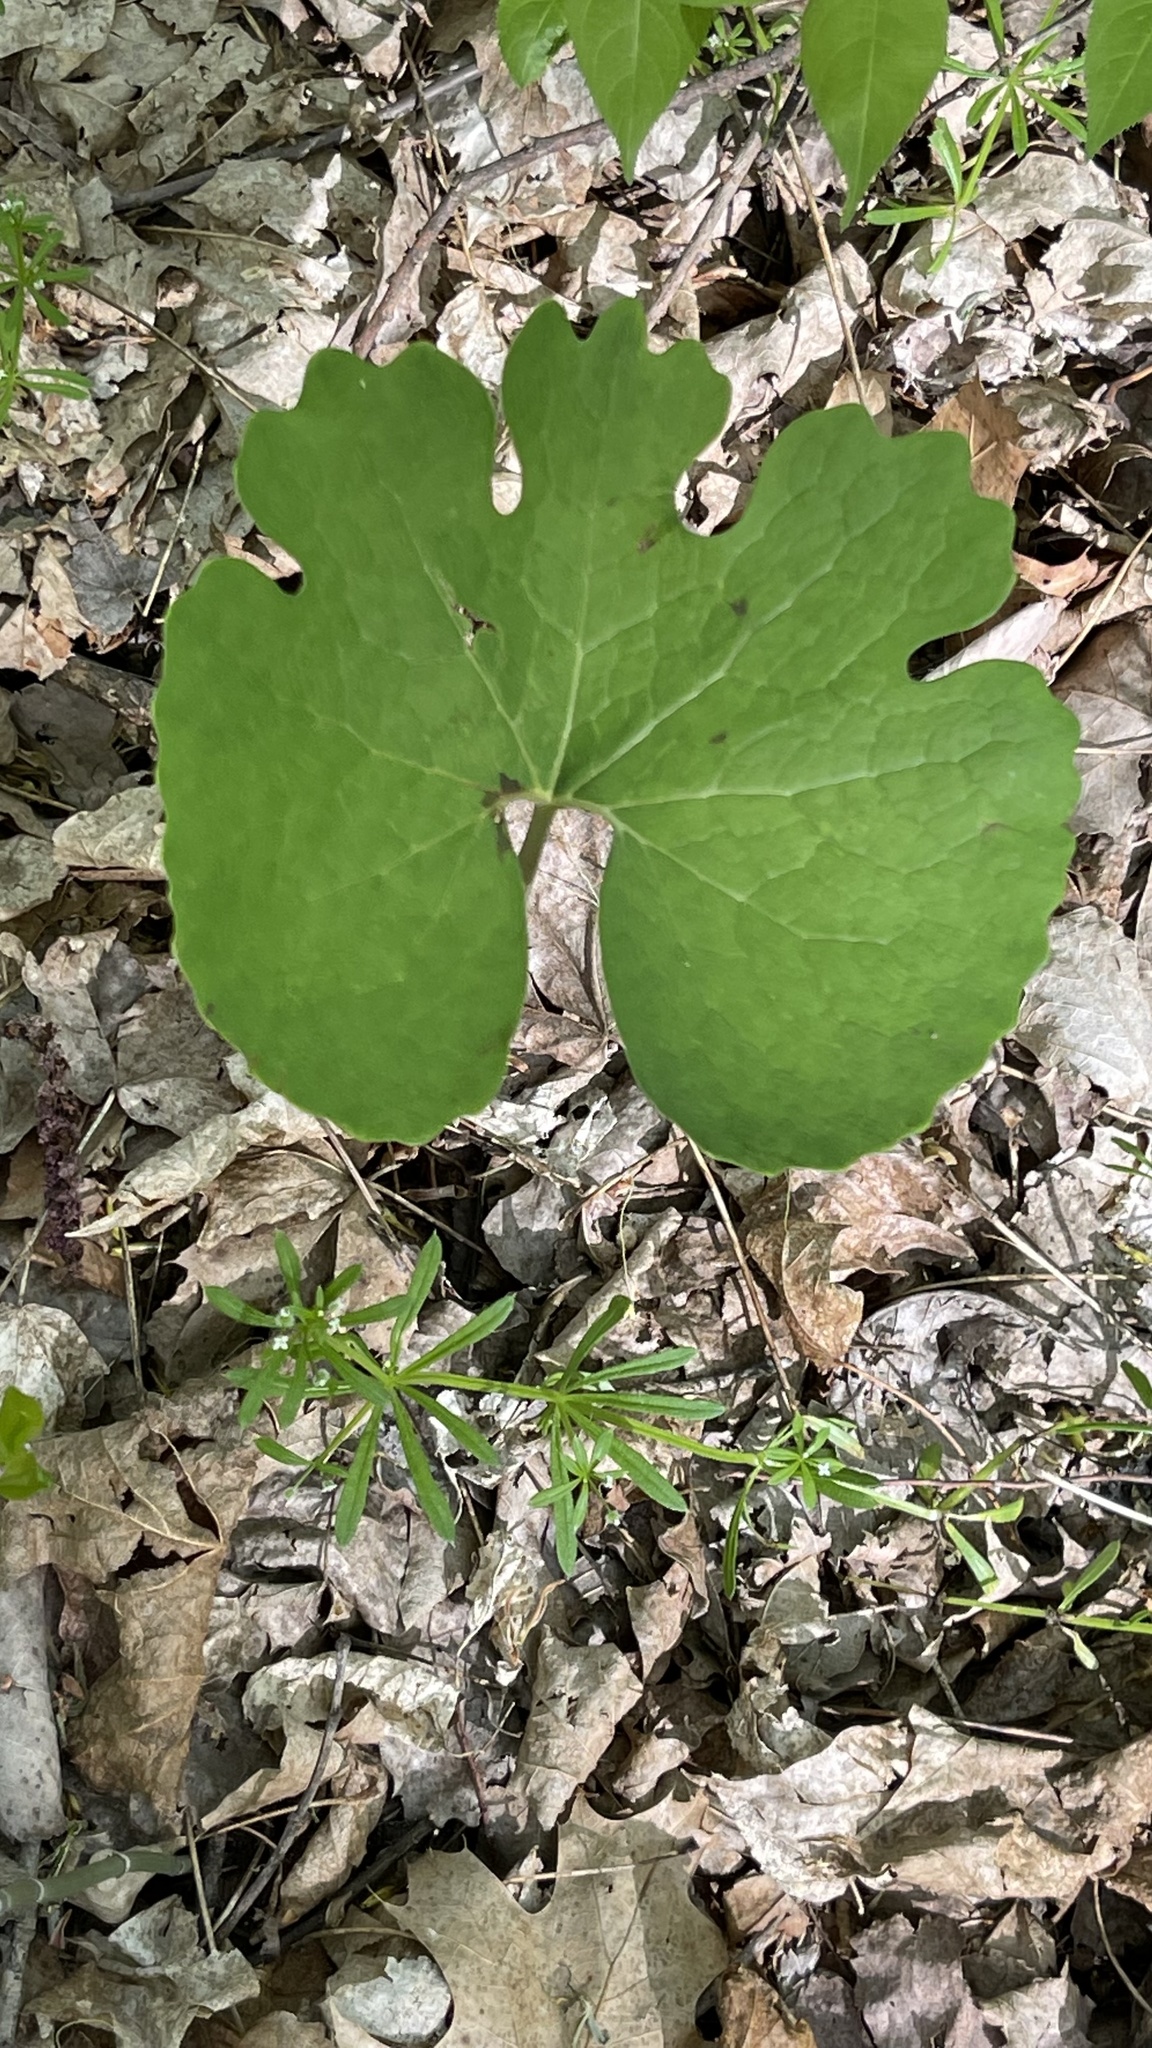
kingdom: Plantae
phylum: Tracheophyta
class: Magnoliopsida
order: Ranunculales
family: Papaveraceae
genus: Sanguinaria
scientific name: Sanguinaria canadensis
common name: Bloodroot
